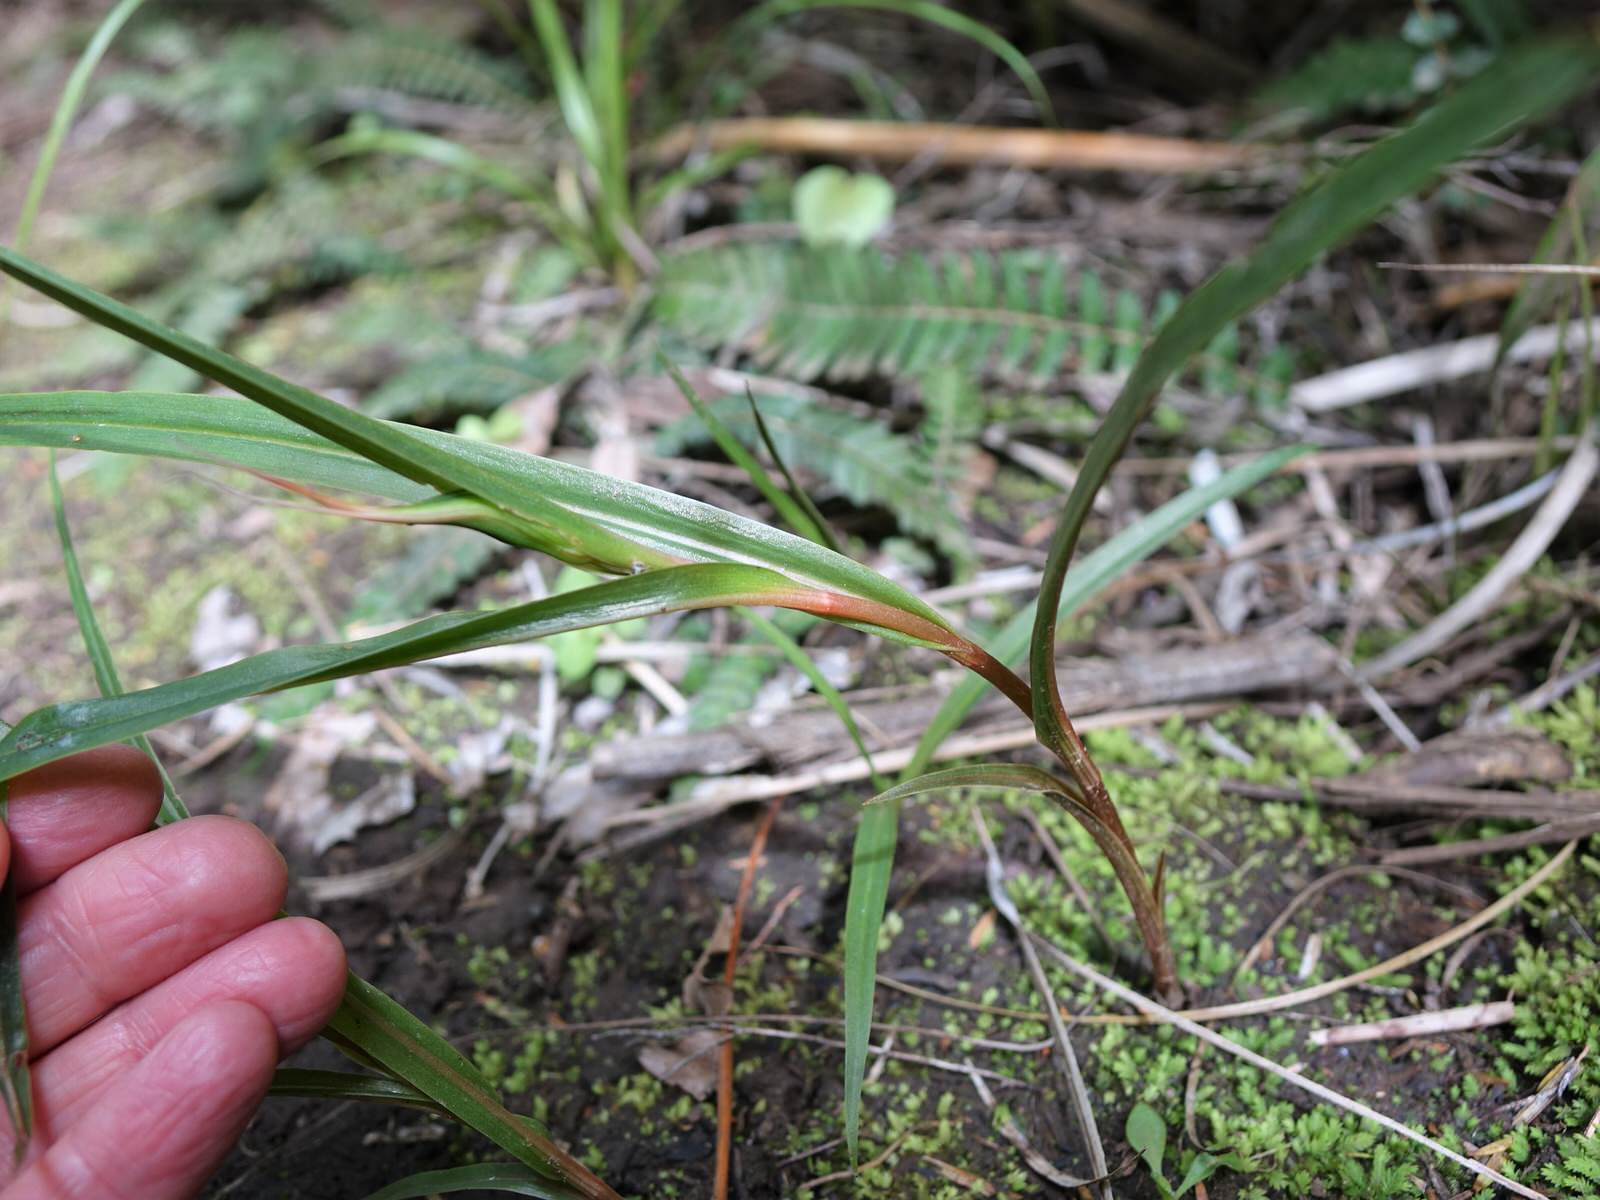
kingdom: Plantae
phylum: Tracheophyta
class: Liliopsida
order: Asparagales
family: Orchidaceae
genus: Pterostylis
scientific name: Pterostylis cardiostigma
